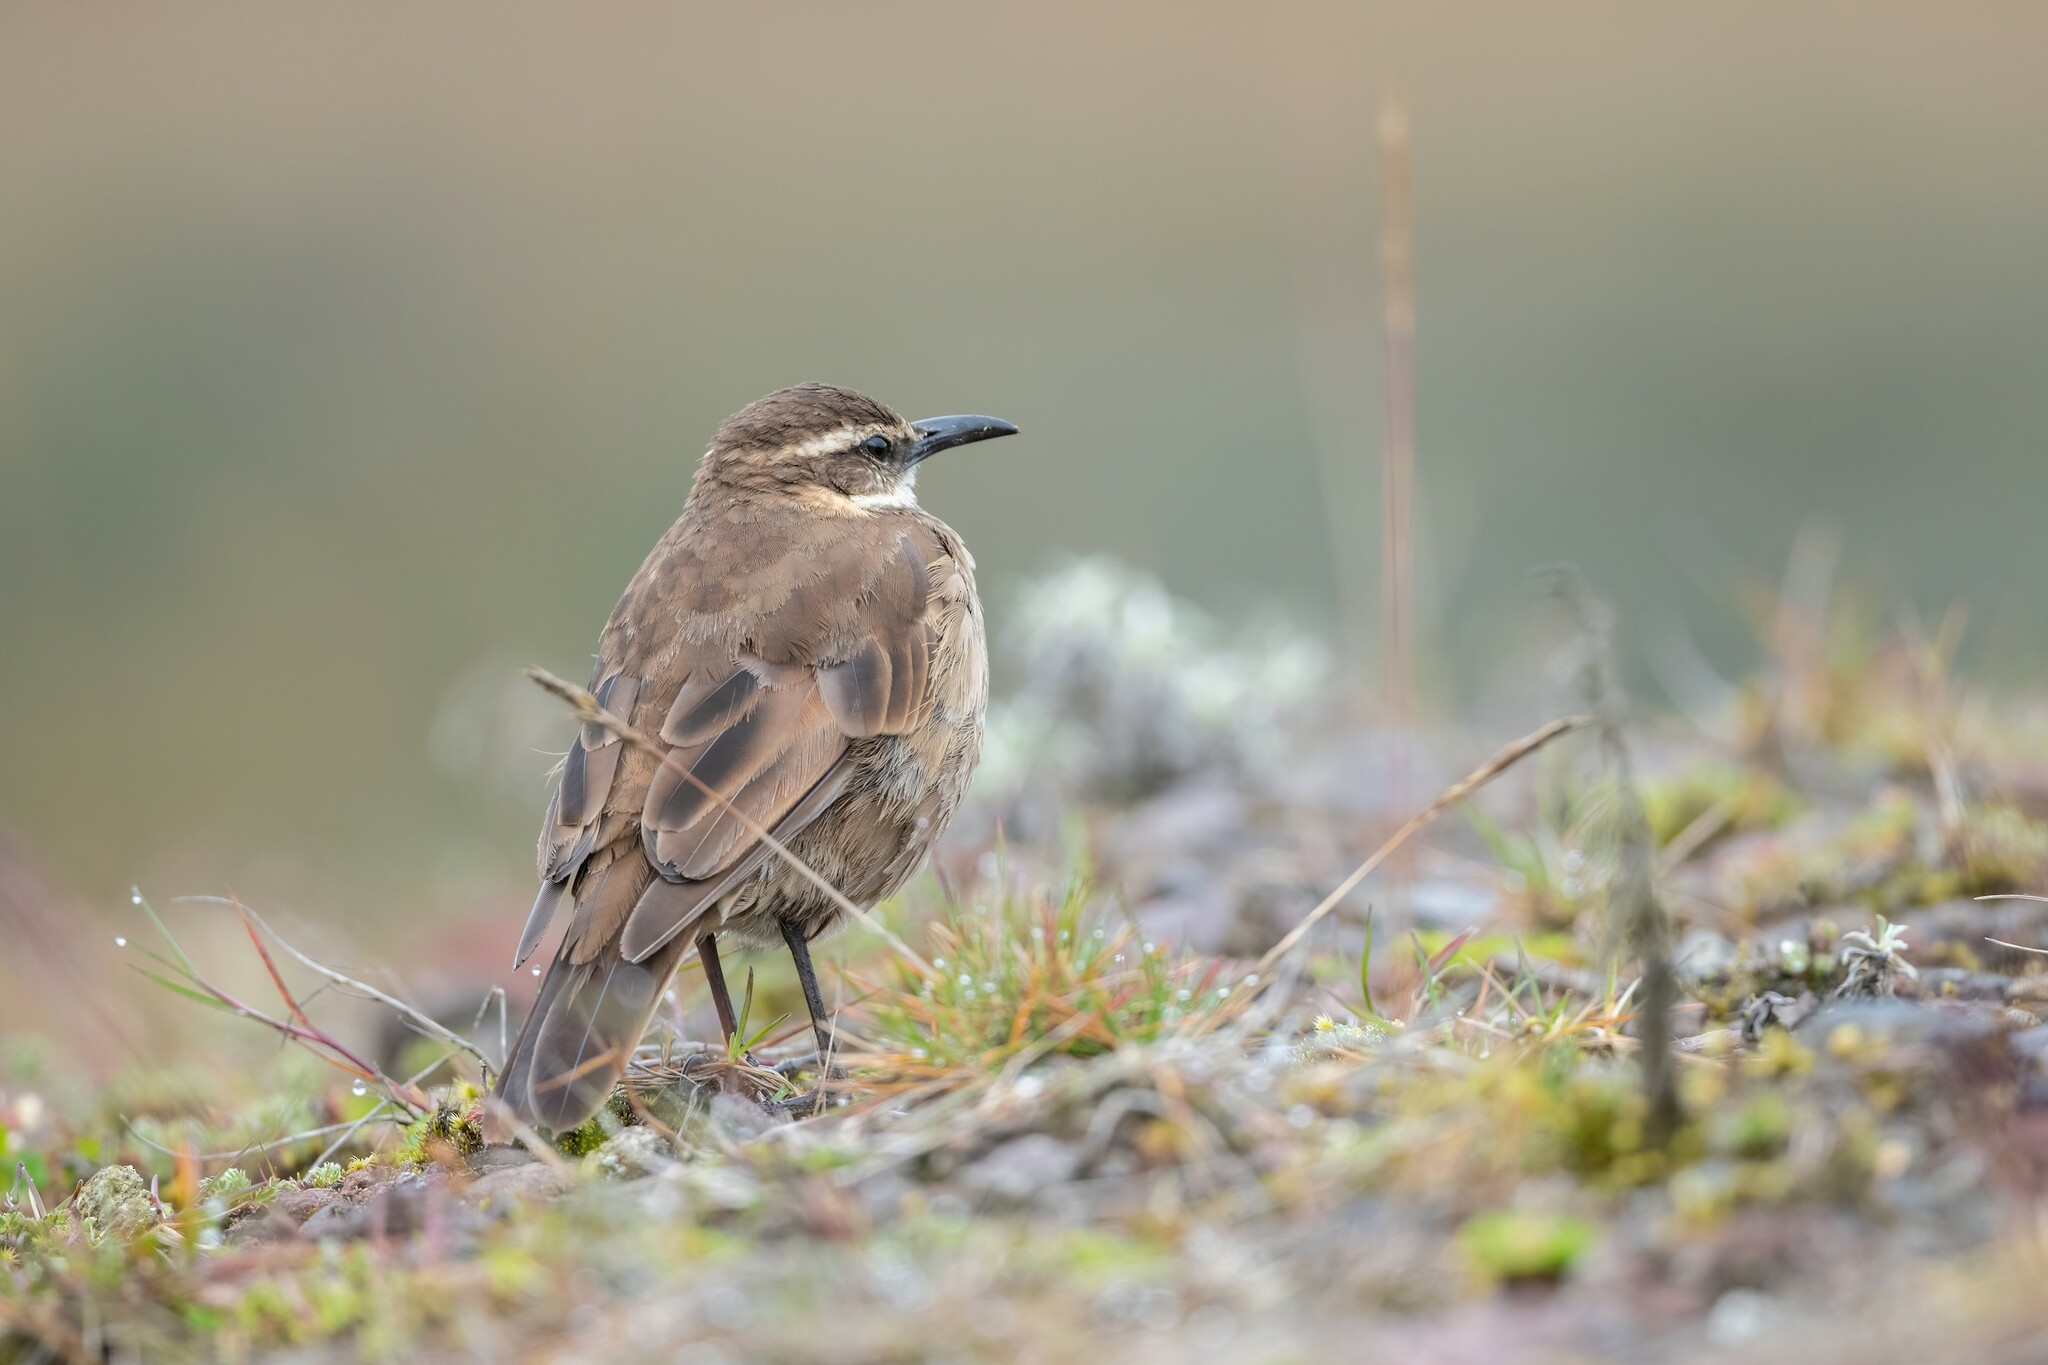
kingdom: Animalia
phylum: Chordata
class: Aves
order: Passeriformes
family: Furnariidae
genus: Cinclodes
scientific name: Cinclodes excelsior
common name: Stout-billed cinclodes
